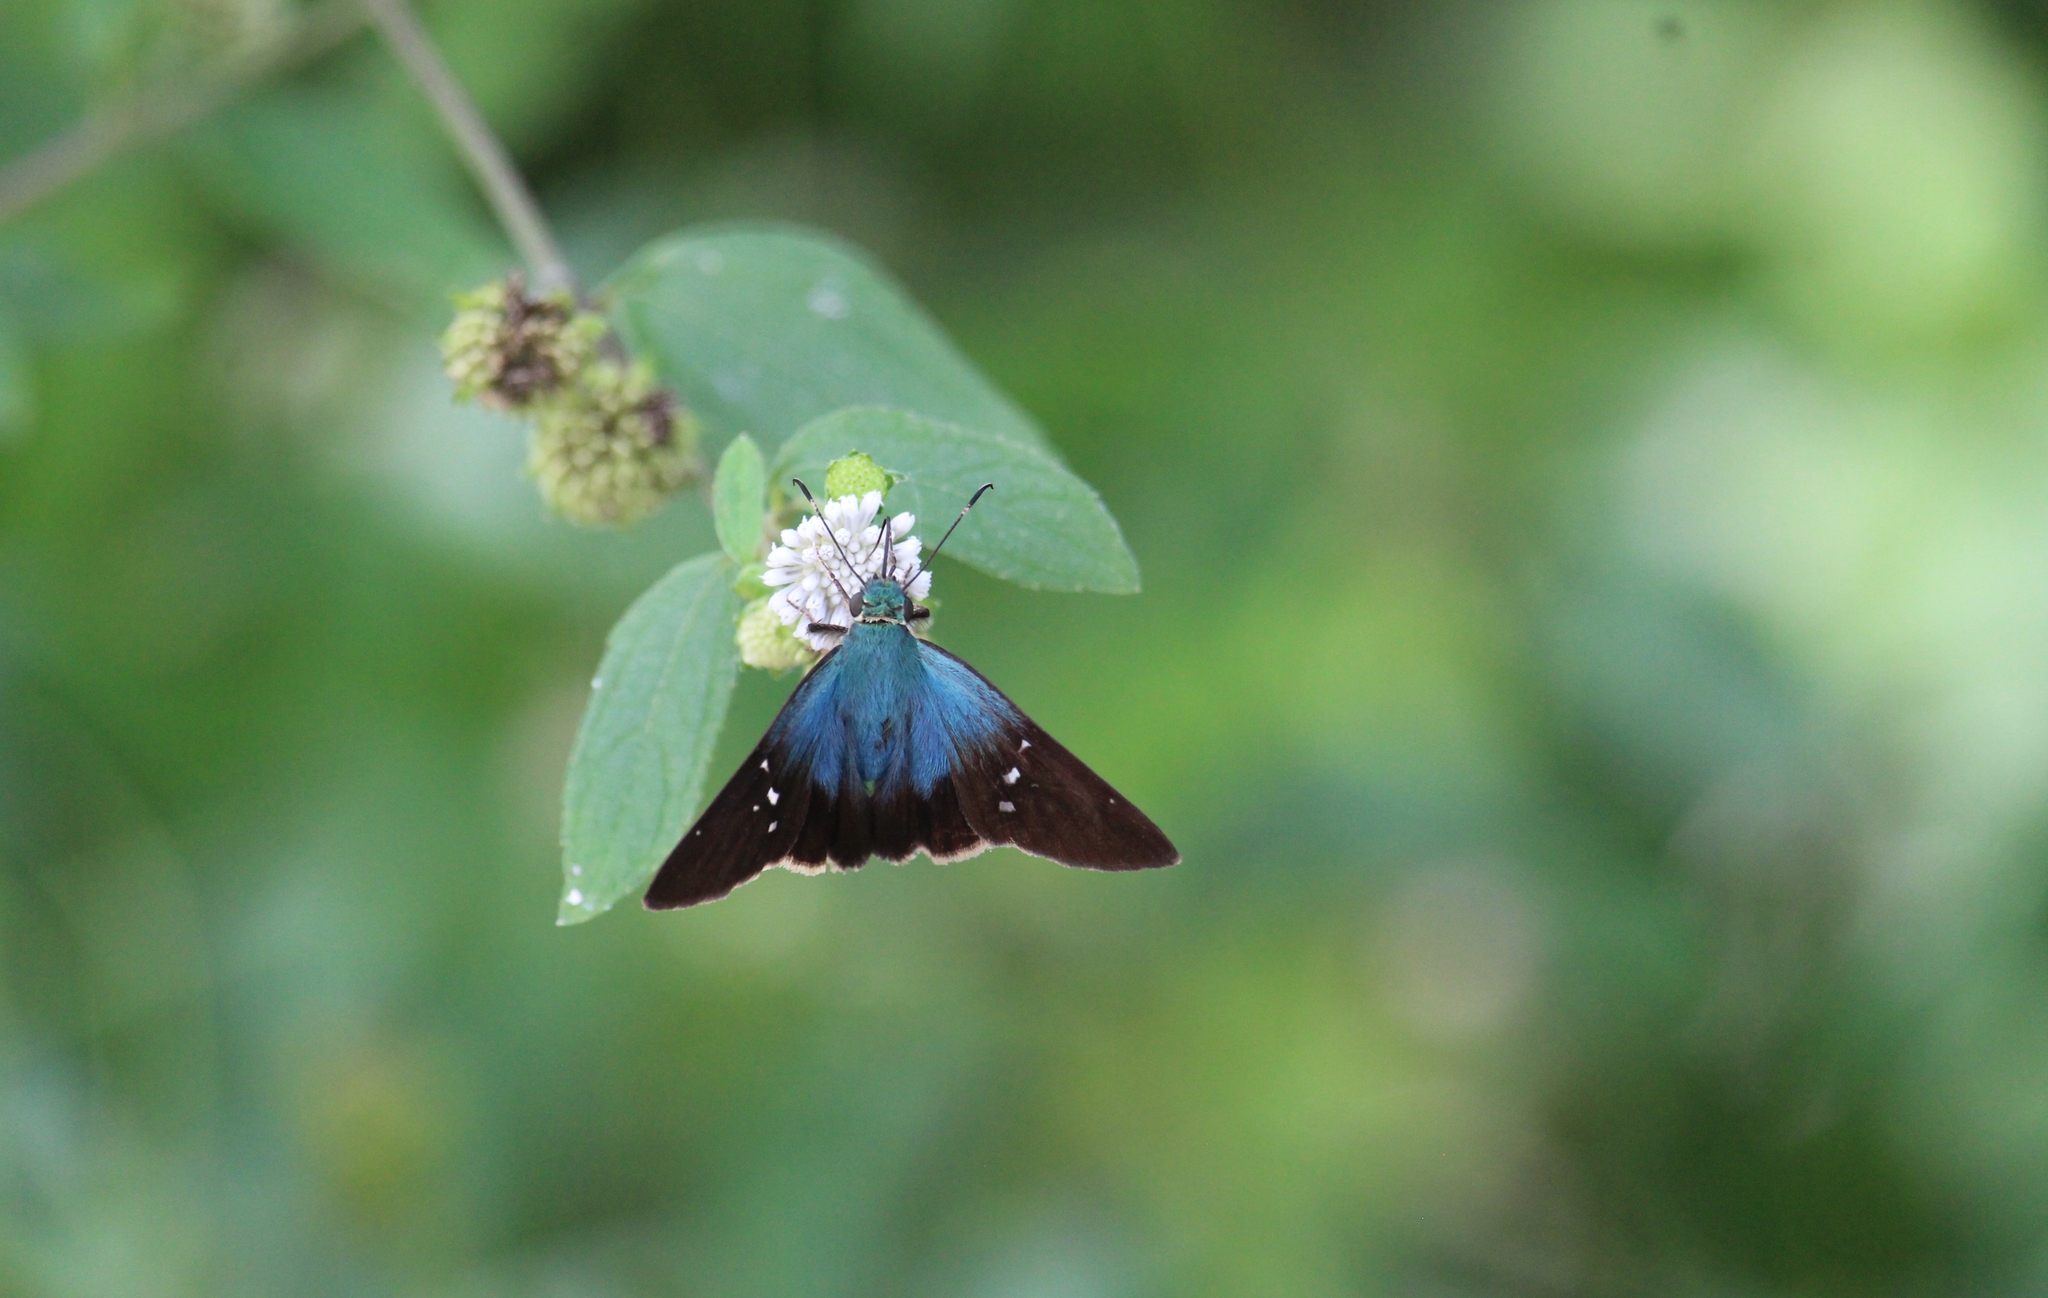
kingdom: Animalia
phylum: Arthropoda
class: Insecta
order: Lepidoptera
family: Hesperiidae
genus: Astraptes
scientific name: Astraptes fulgerator
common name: Two-barred flasher
